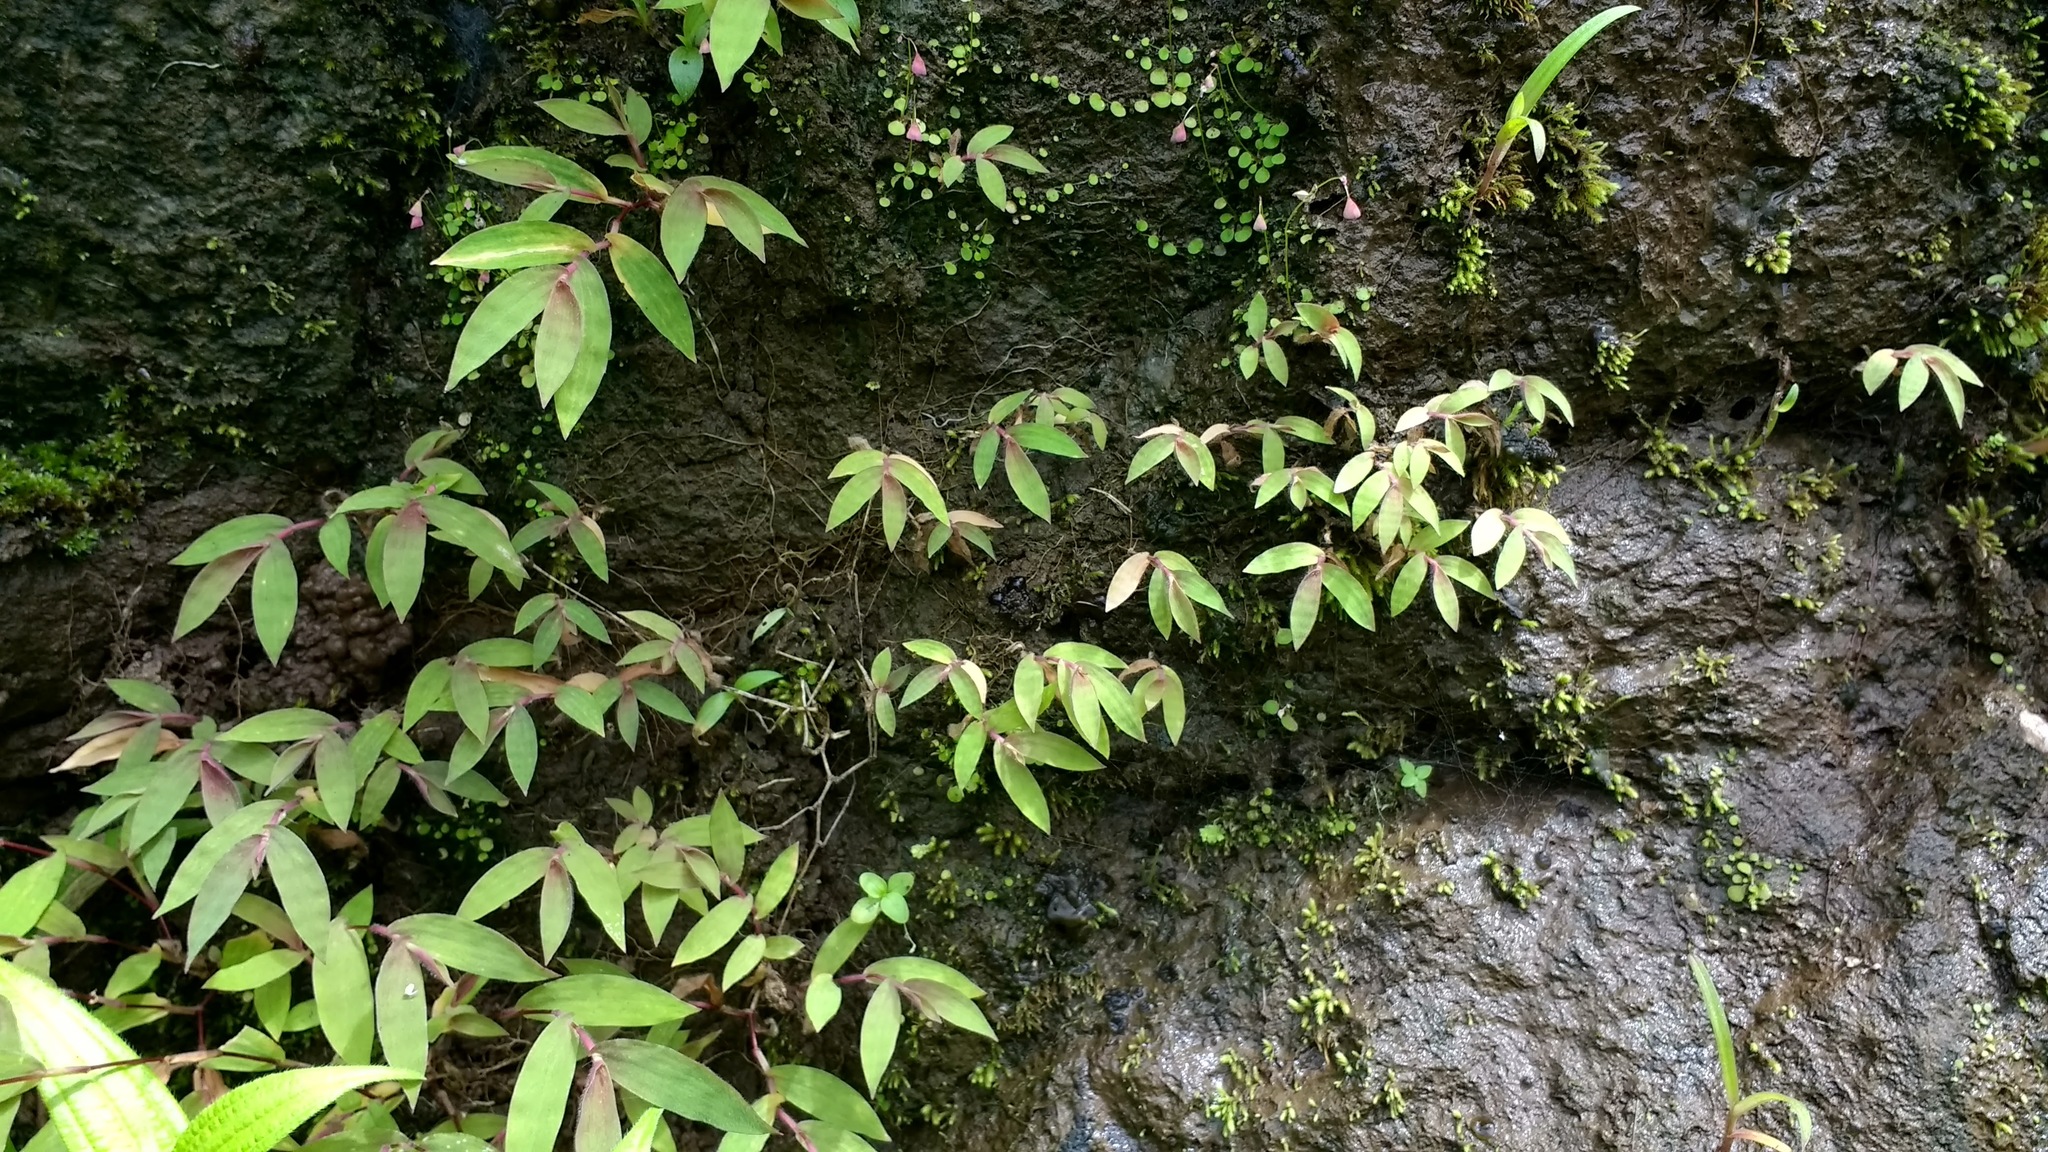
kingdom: Plantae
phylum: Tracheophyta
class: Liliopsida
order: Poales
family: Poaceae
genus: Arthraxon
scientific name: Arthraxon jubatus
